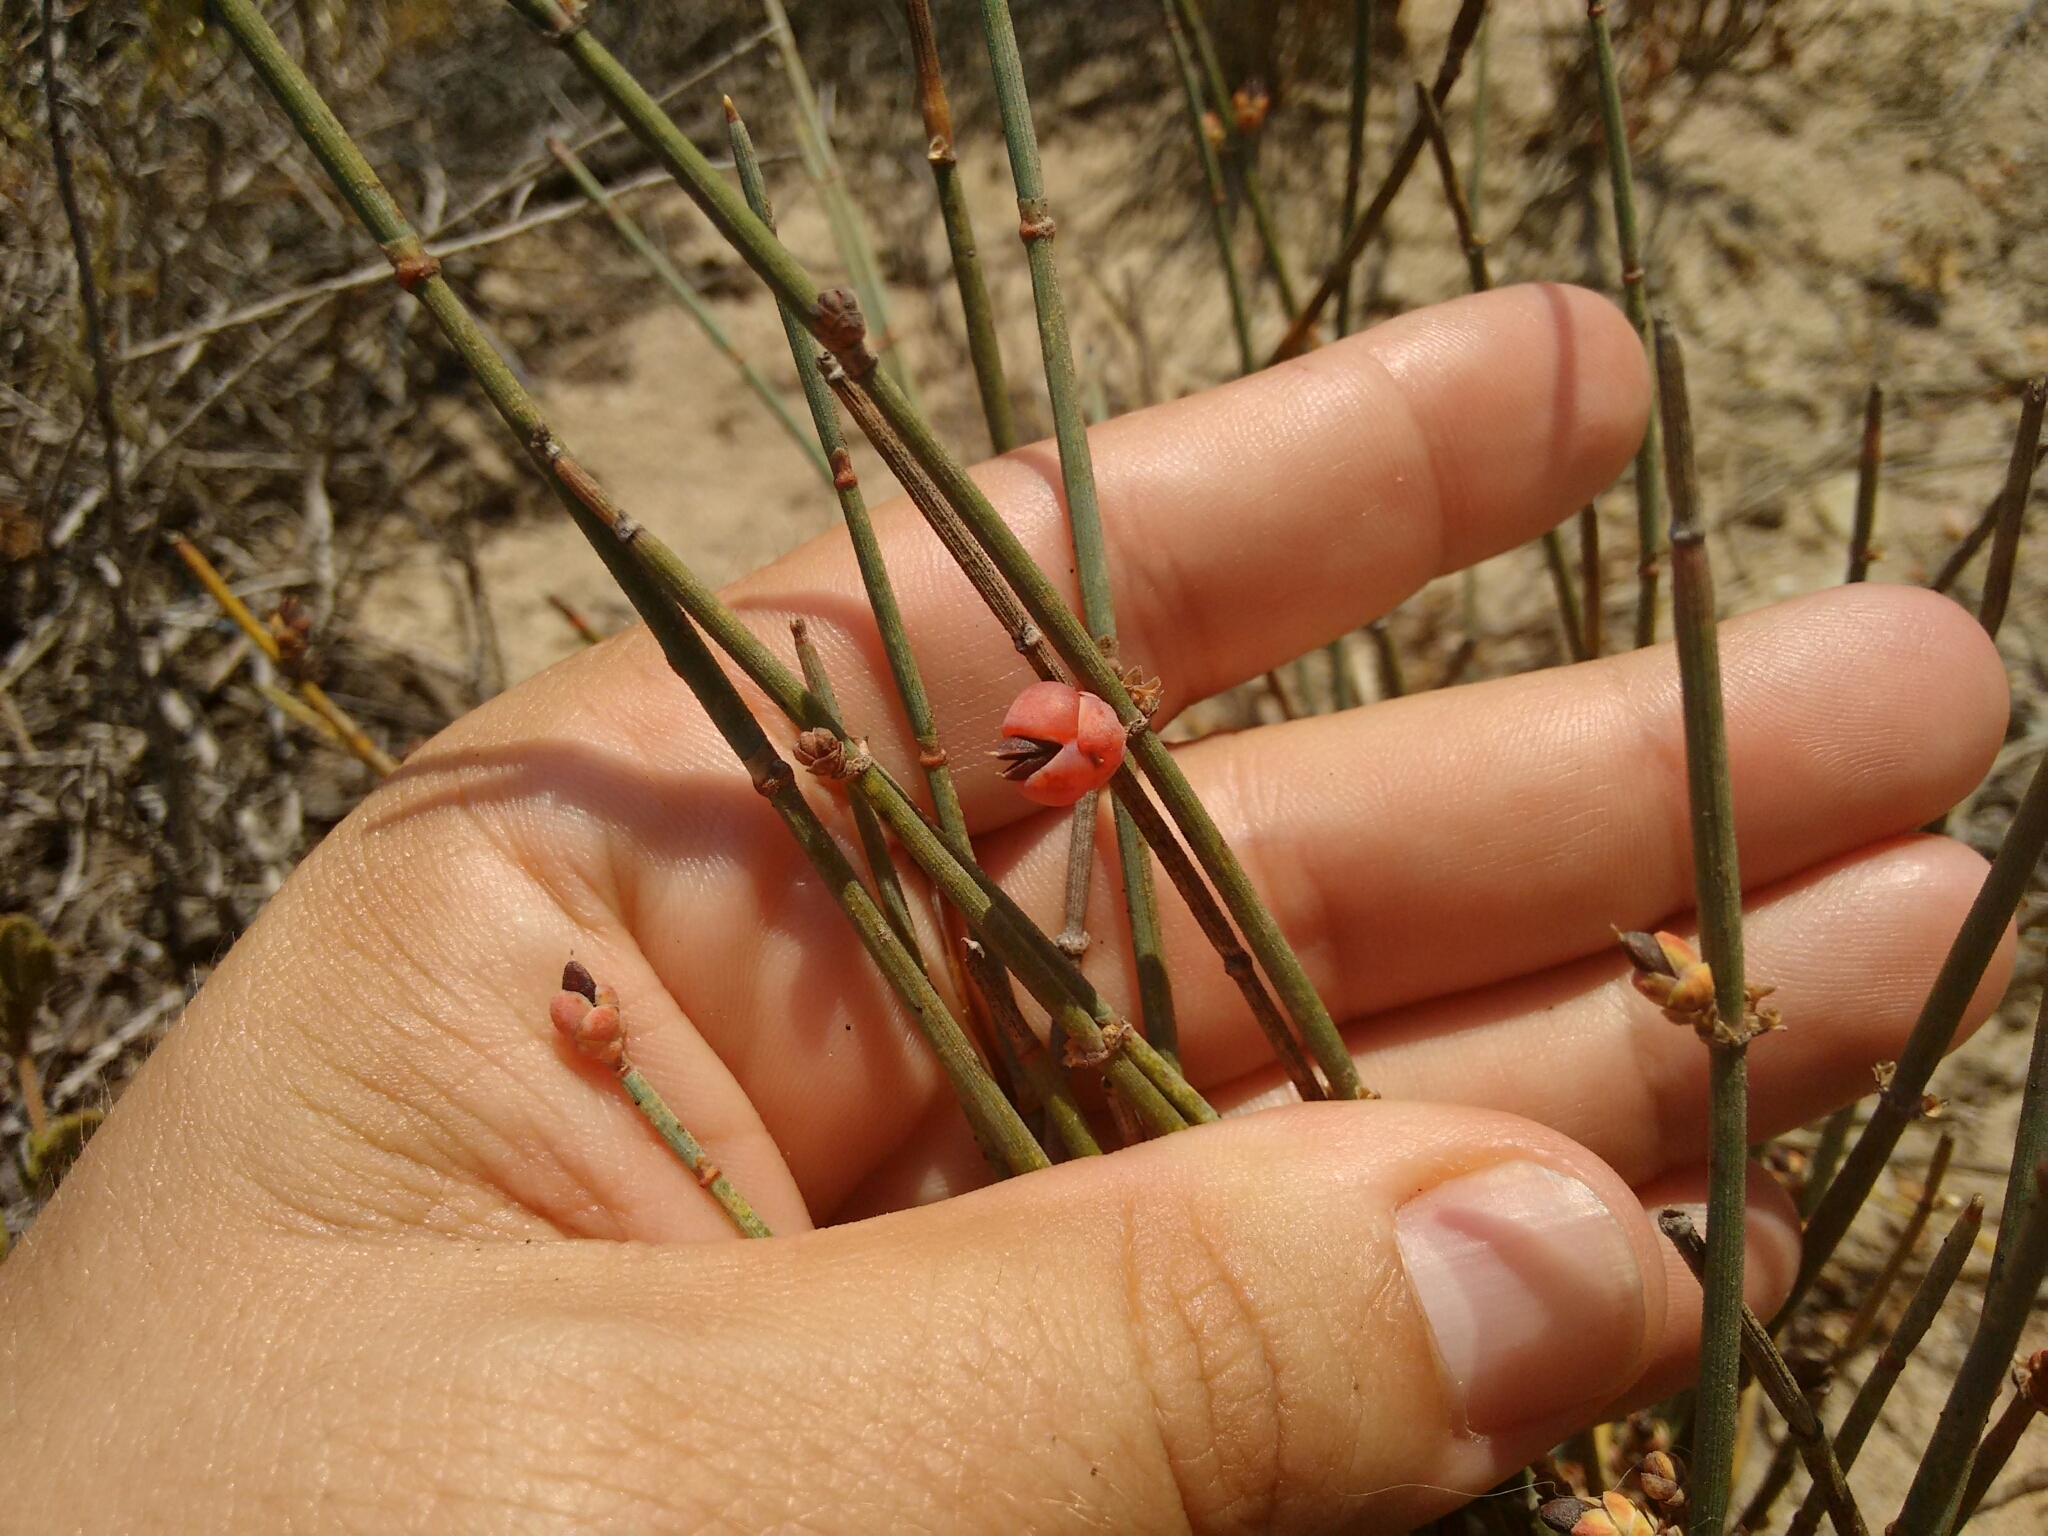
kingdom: Plantae
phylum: Tracheophyta
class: Gnetopsida
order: Ephedrales
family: Ephedraceae
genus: Ephedra
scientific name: Ephedra distachya
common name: Sea grape
